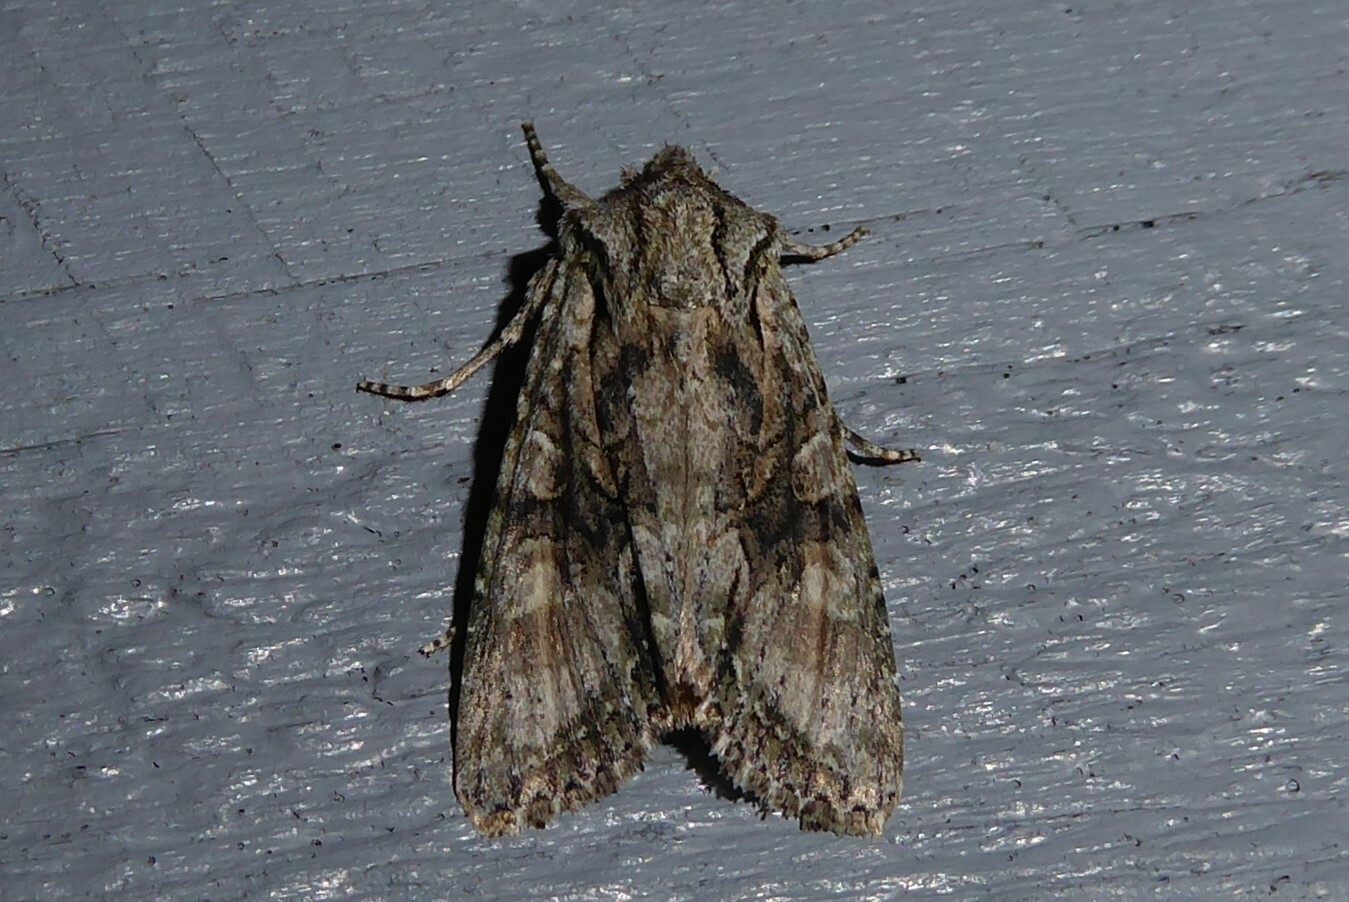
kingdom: Animalia
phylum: Arthropoda
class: Insecta
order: Lepidoptera
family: Noctuidae
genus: Ichneutica
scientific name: Ichneutica mutans
